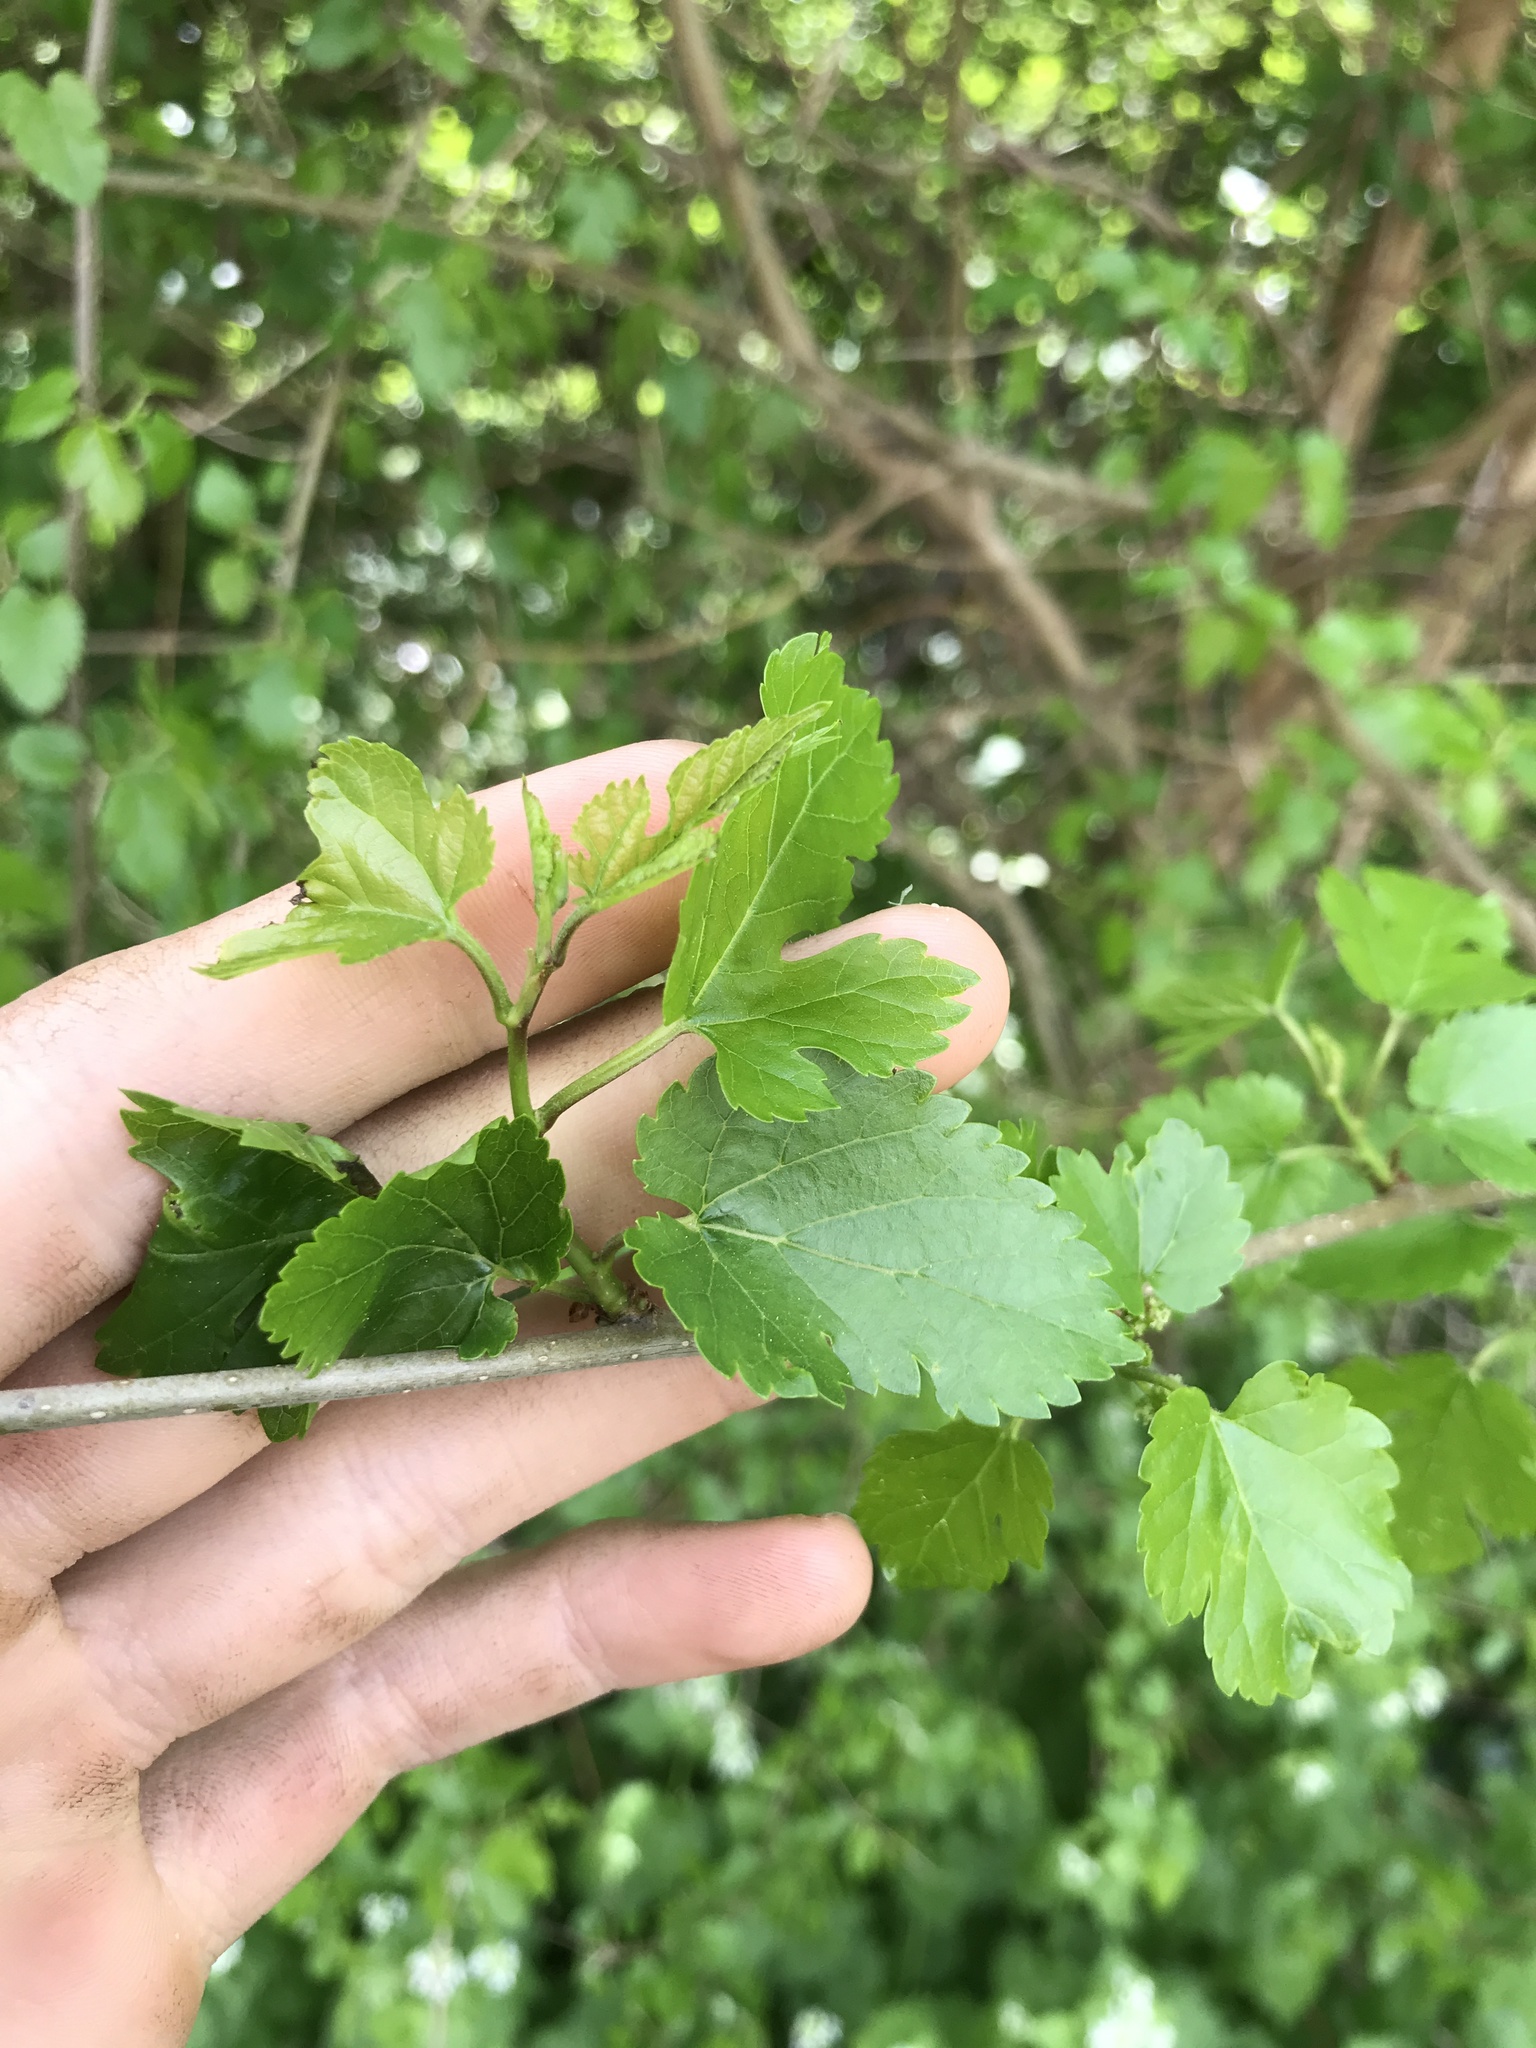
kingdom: Plantae
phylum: Tracheophyta
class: Magnoliopsida
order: Rosales
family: Moraceae
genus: Morus
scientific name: Morus alba
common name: White mulberry
